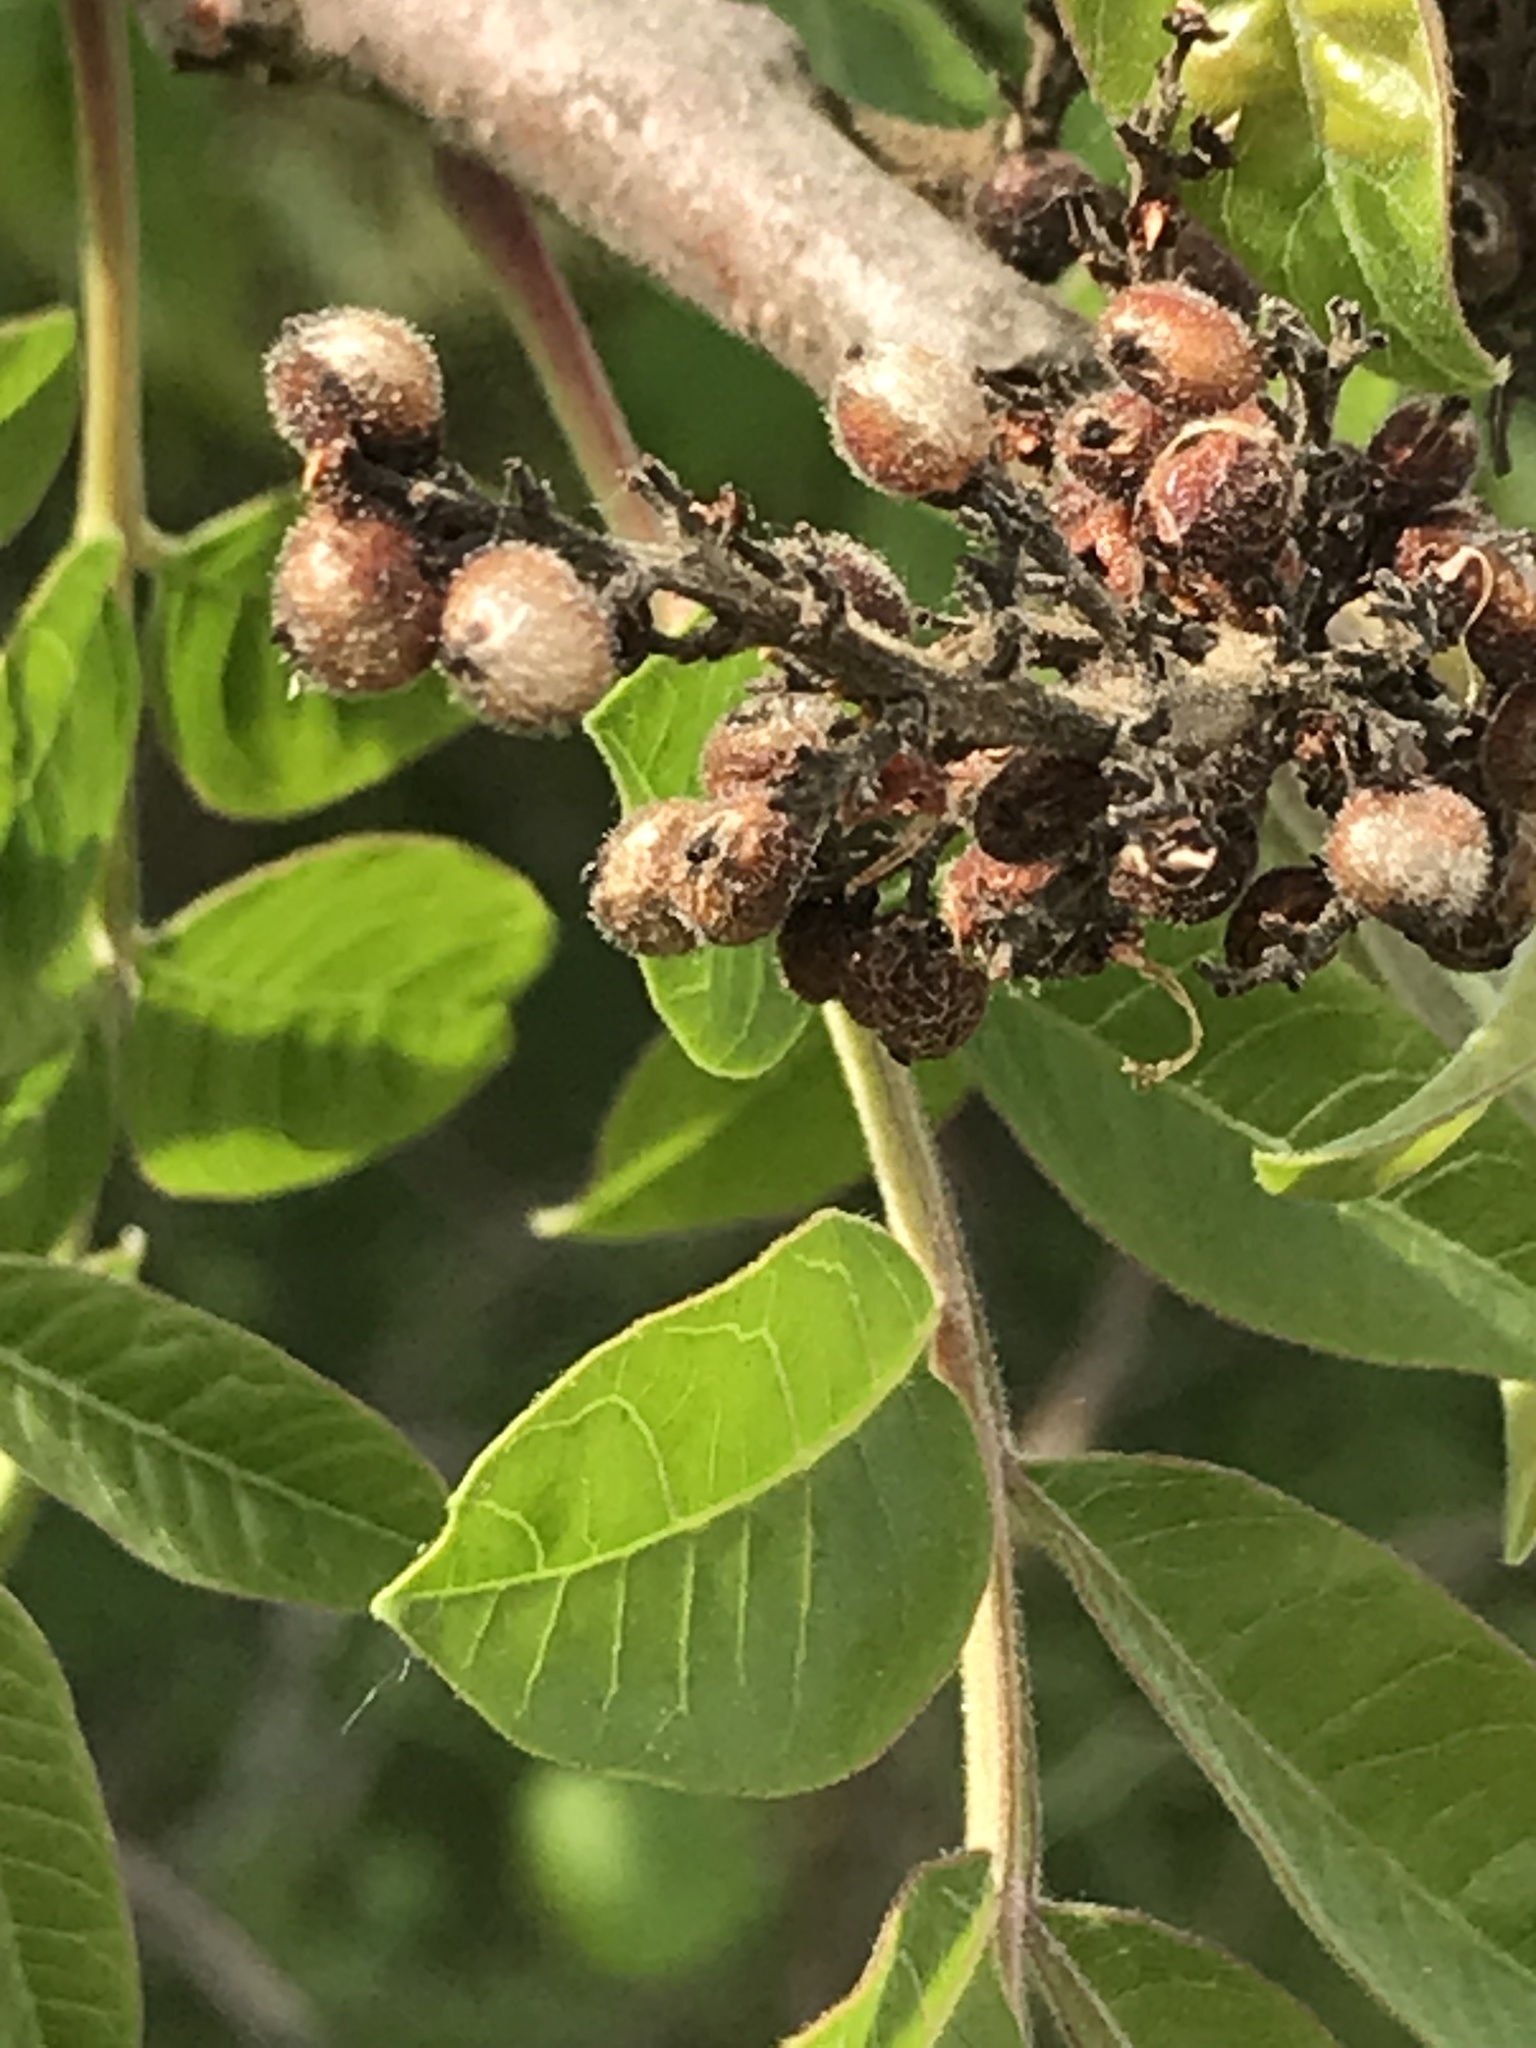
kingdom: Plantae
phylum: Tracheophyta
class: Magnoliopsida
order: Sapindales
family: Anacardiaceae
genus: Rhus
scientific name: Rhus copallina
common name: Shining sumac
